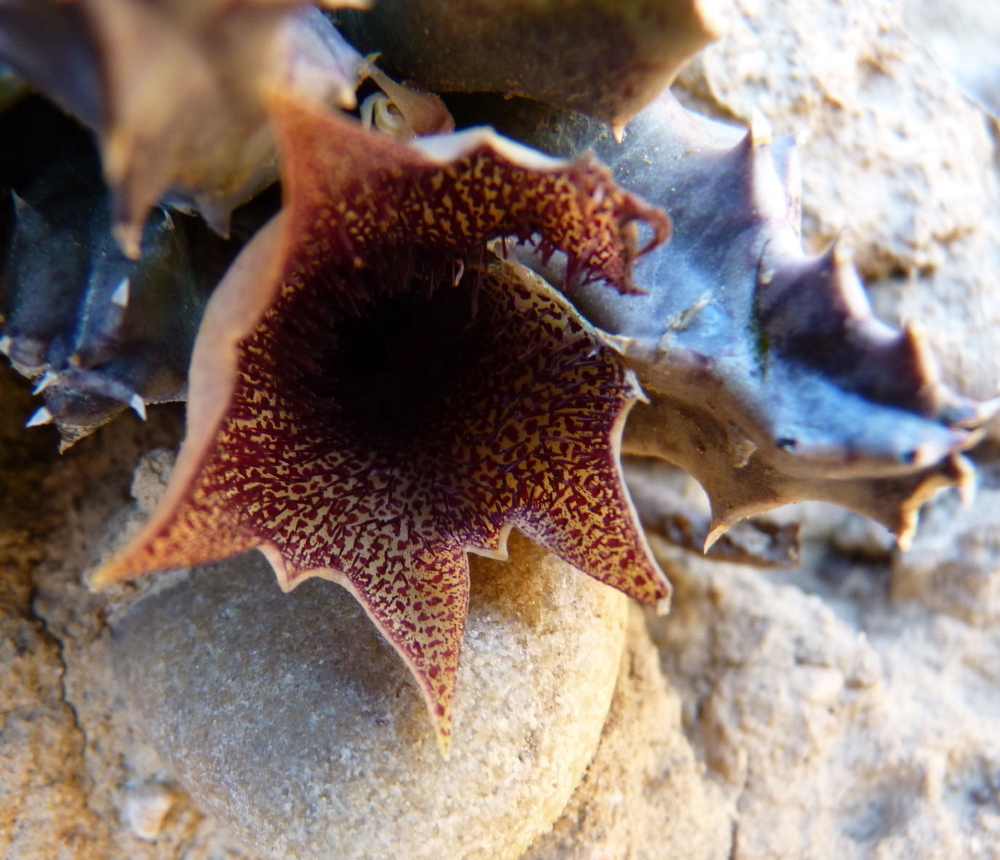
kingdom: Plantae
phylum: Tracheophyta
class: Magnoliopsida
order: Gentianales
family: Apocynaceae
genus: Ceropegia
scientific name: Ceropegia clavigera
